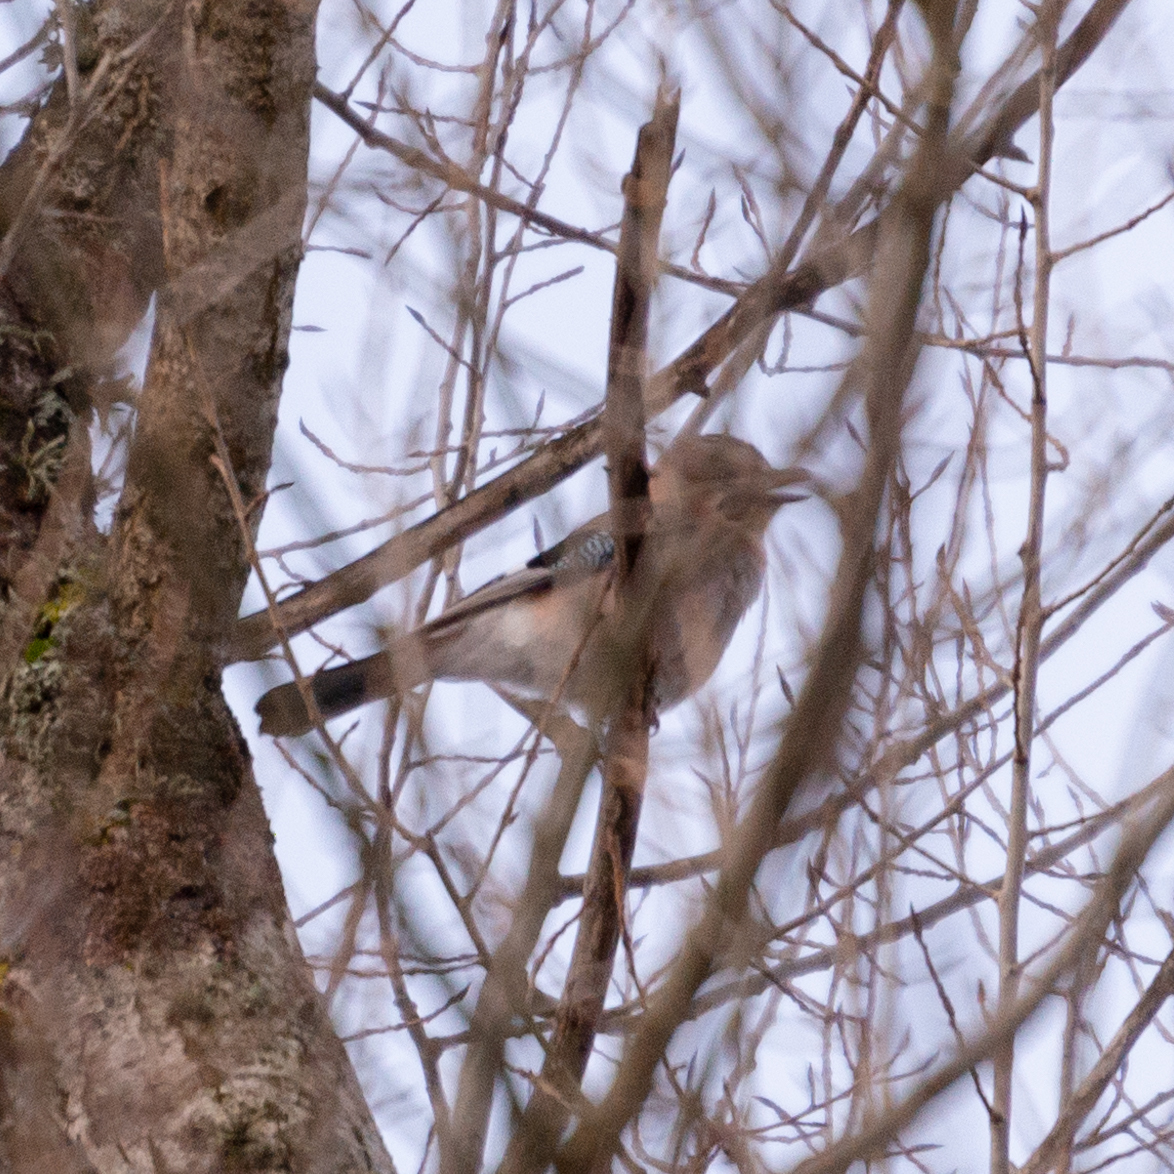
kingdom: Animalia
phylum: Chordata
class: Aves
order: Passeriformes
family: Corvidae
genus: Garrulus
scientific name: Garrulus glandarius
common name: Eurasian jay
